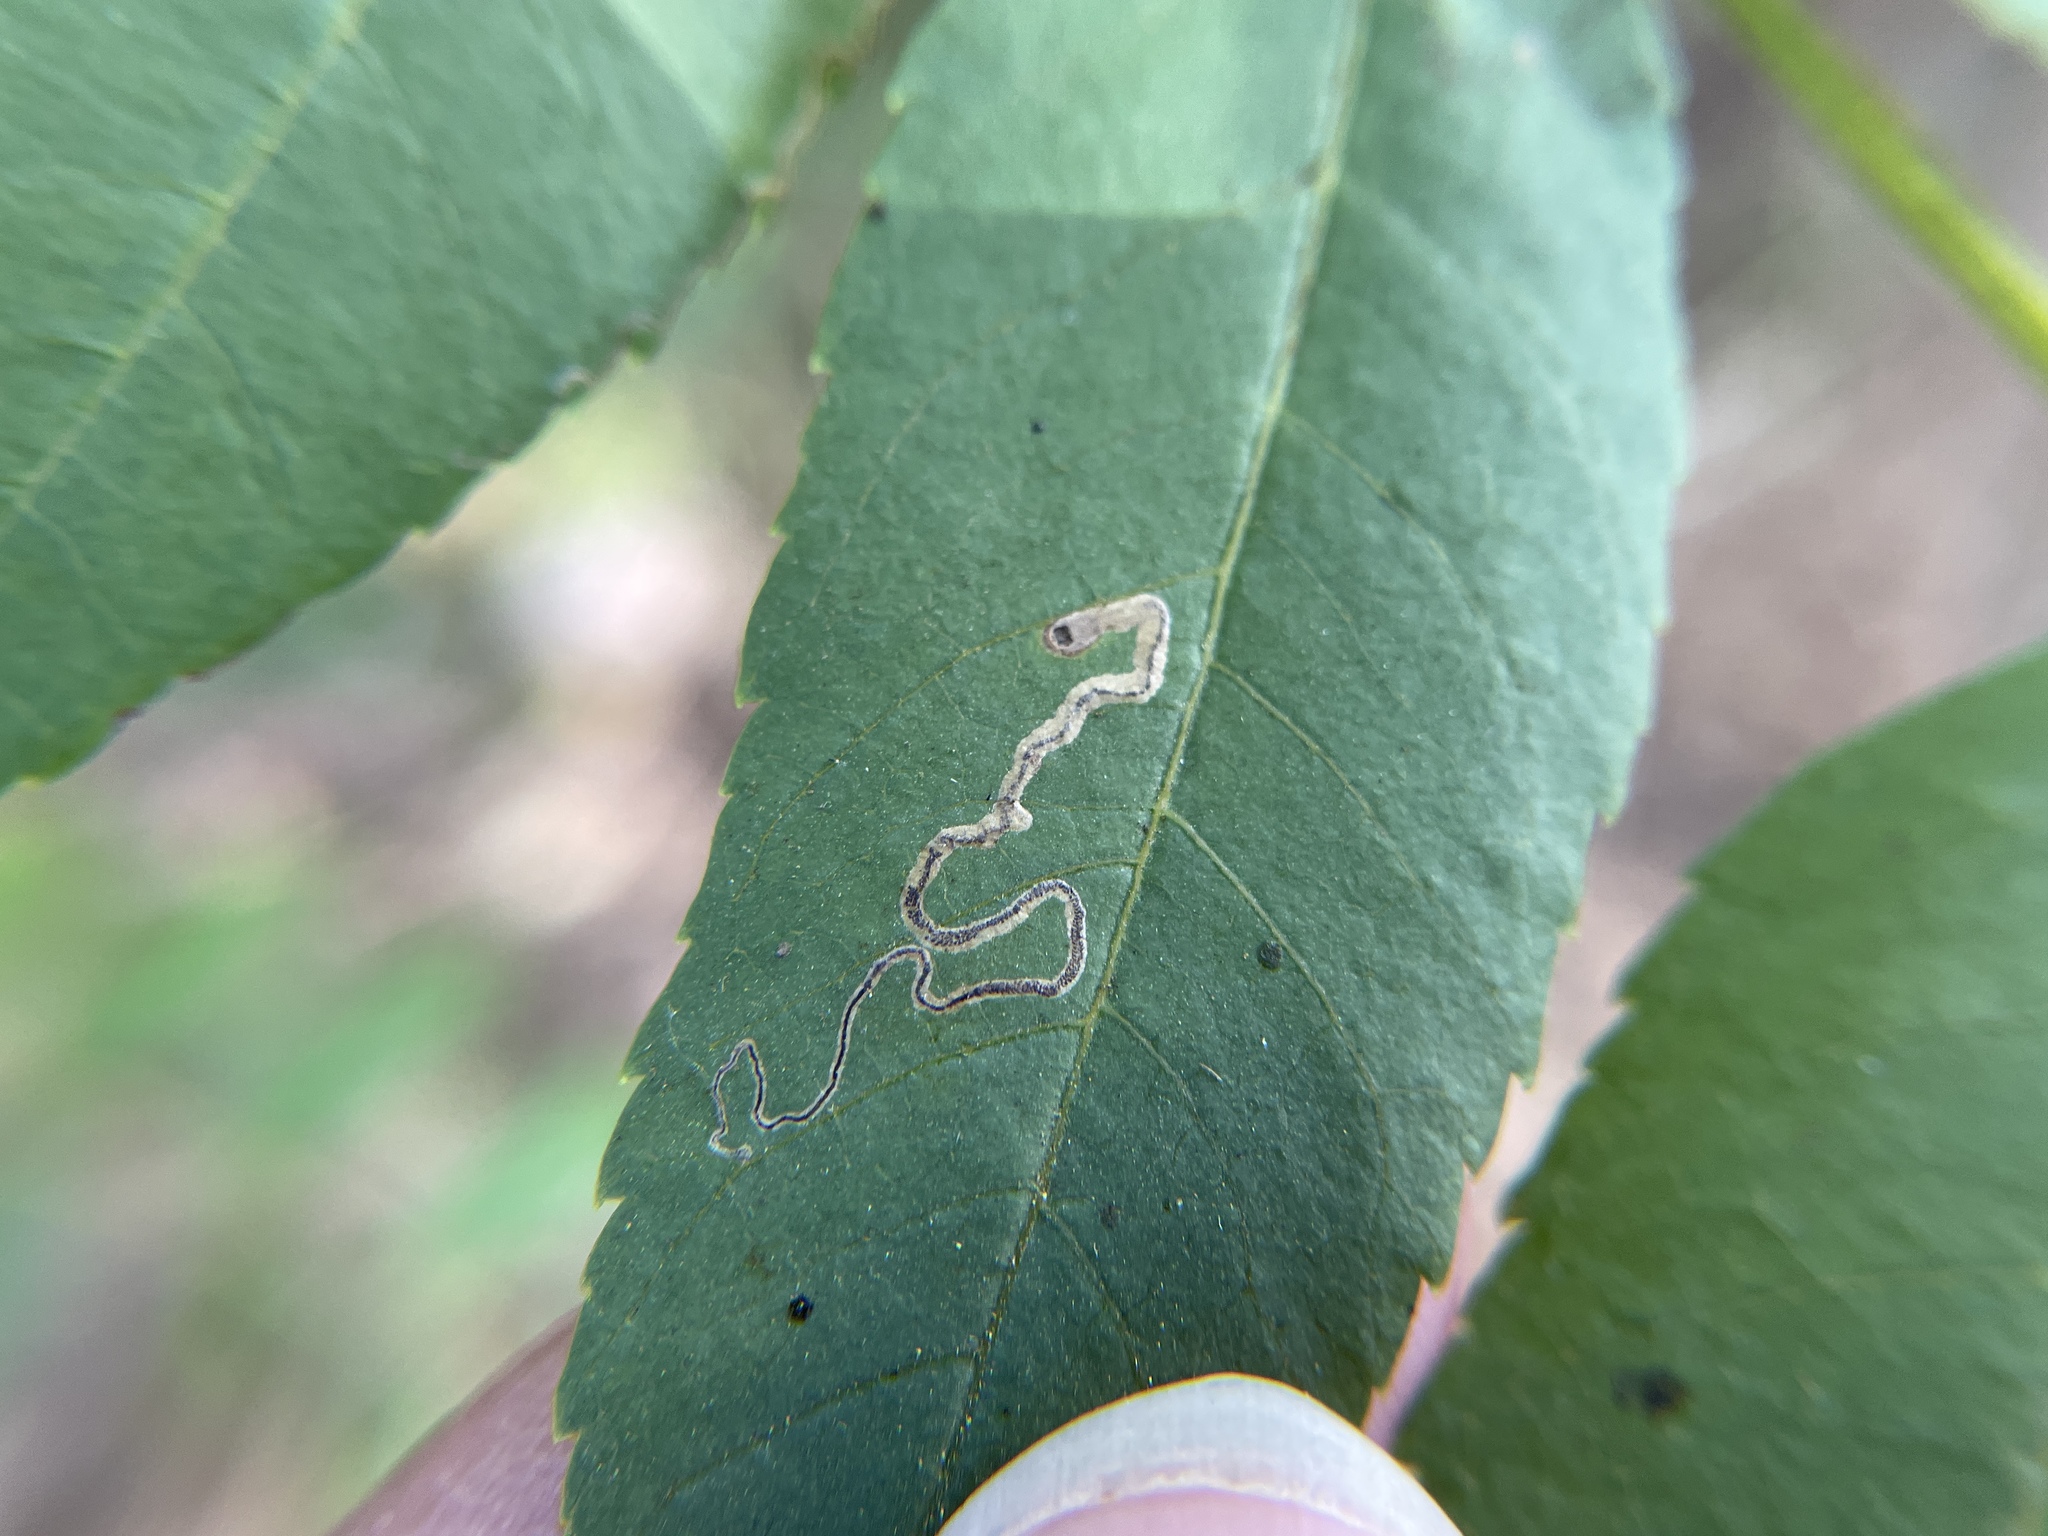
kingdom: Animalia
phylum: Arthropoda
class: Insecta
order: Lepidoptera
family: Nepticulidae
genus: Stigmella
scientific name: Stigmella longisacca
